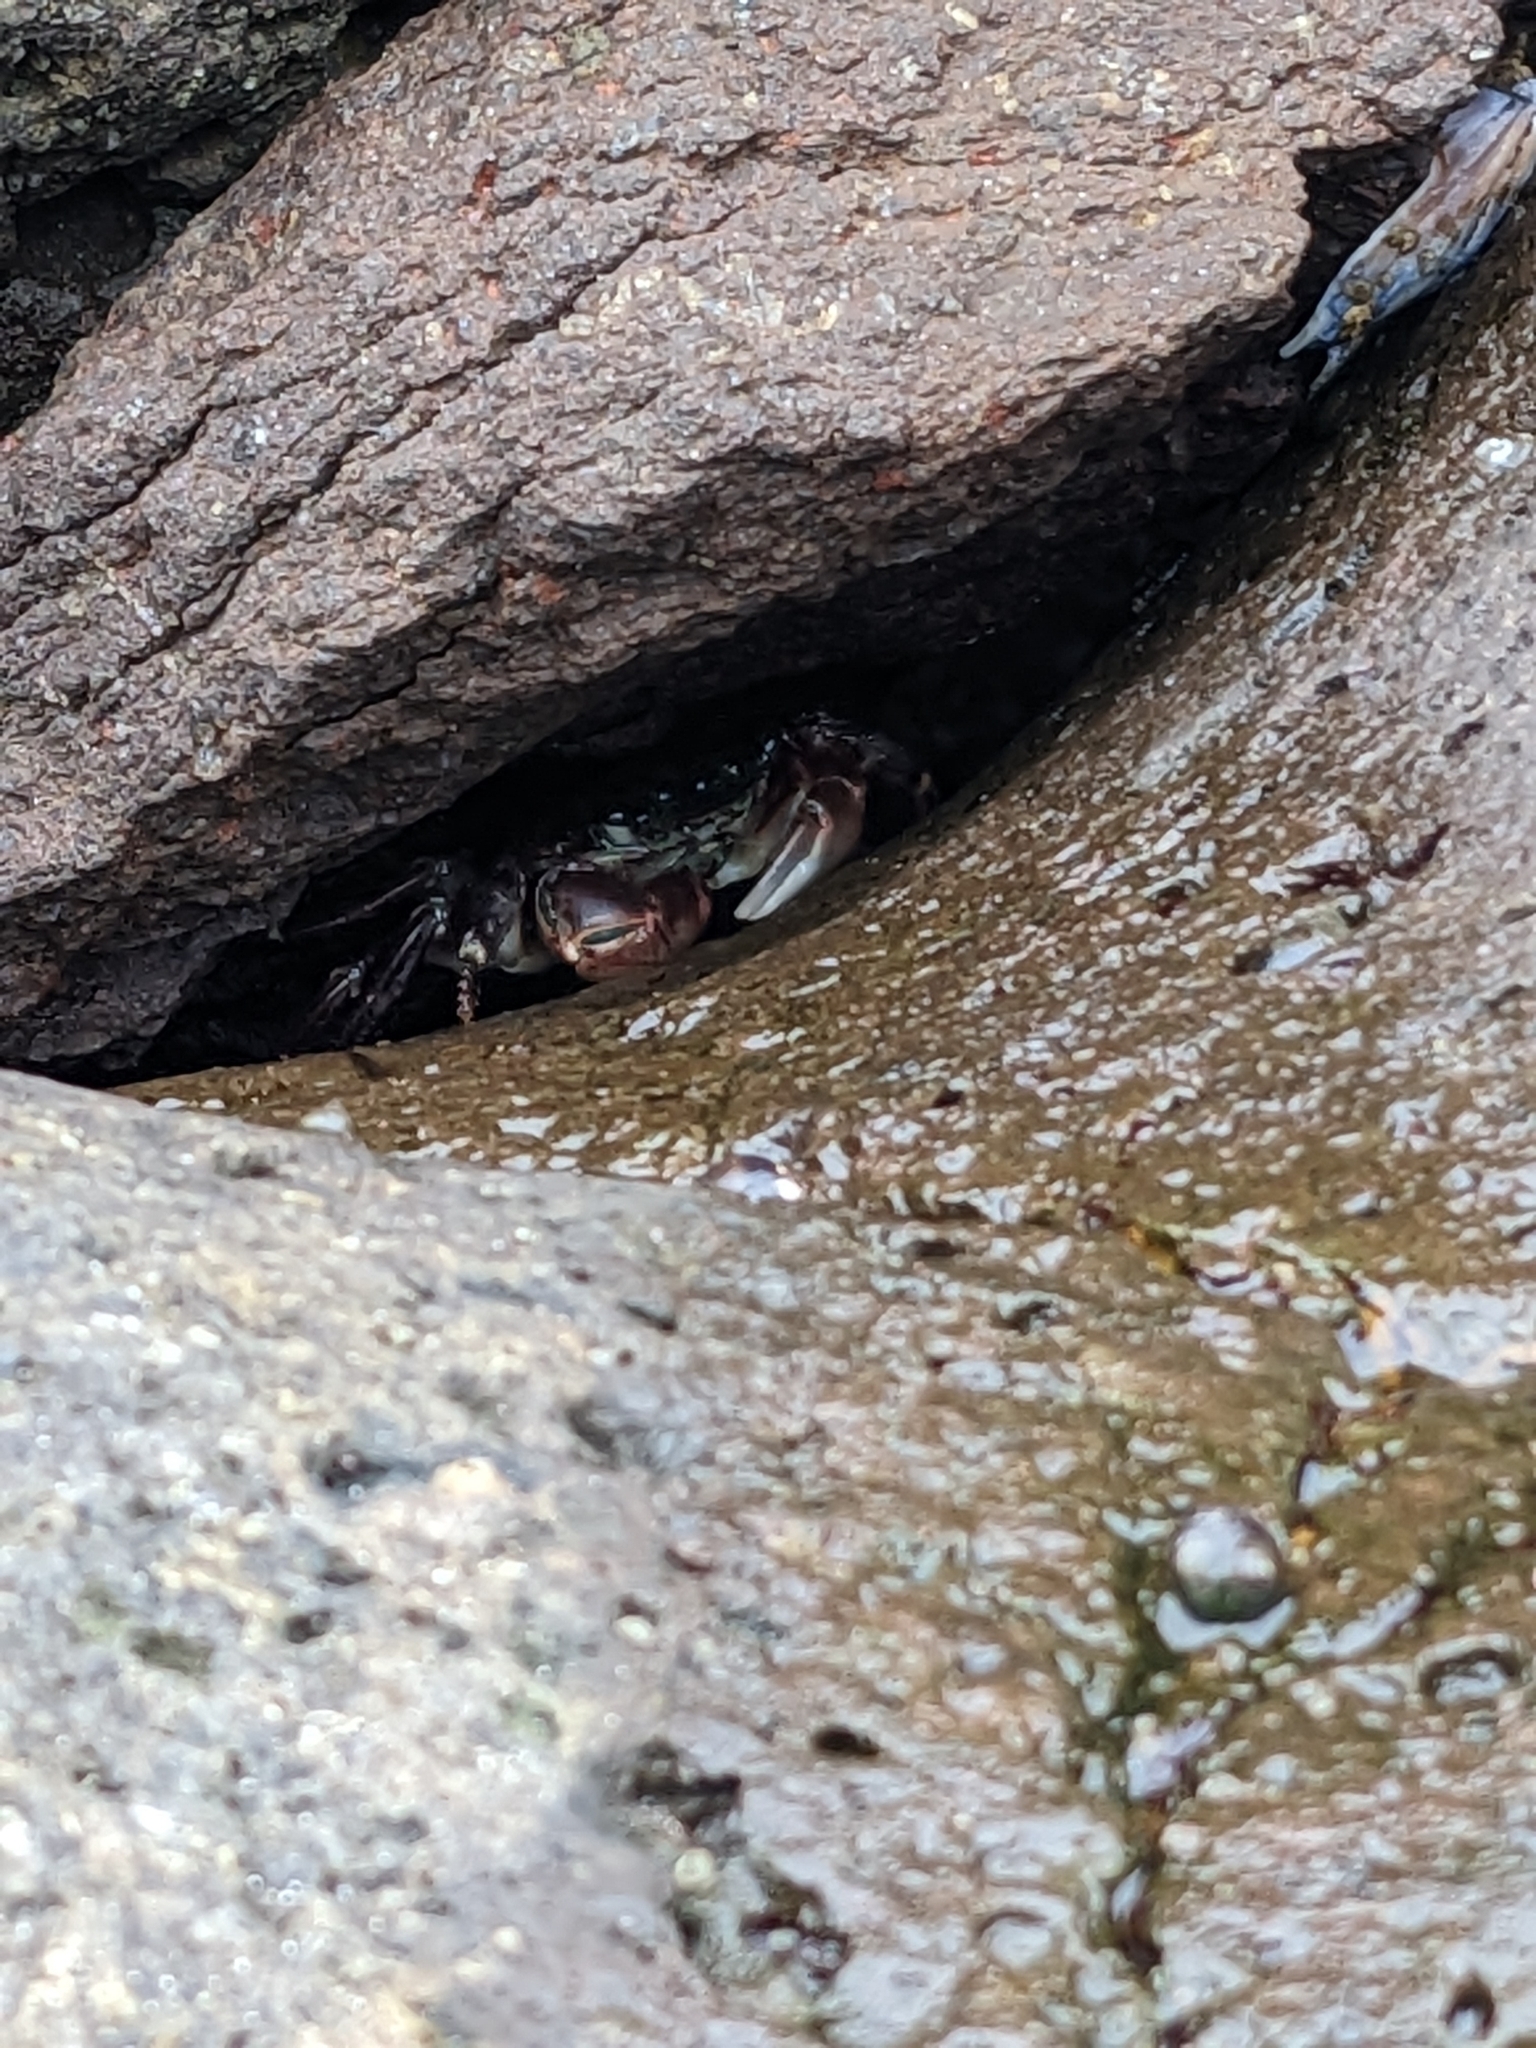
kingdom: Animalia
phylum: Arthropoda
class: Malacostraca
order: Decapoda
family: Grapsidae
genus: Pachygrapsus
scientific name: Pachygrapsus crassipes
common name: Striped shore crab
